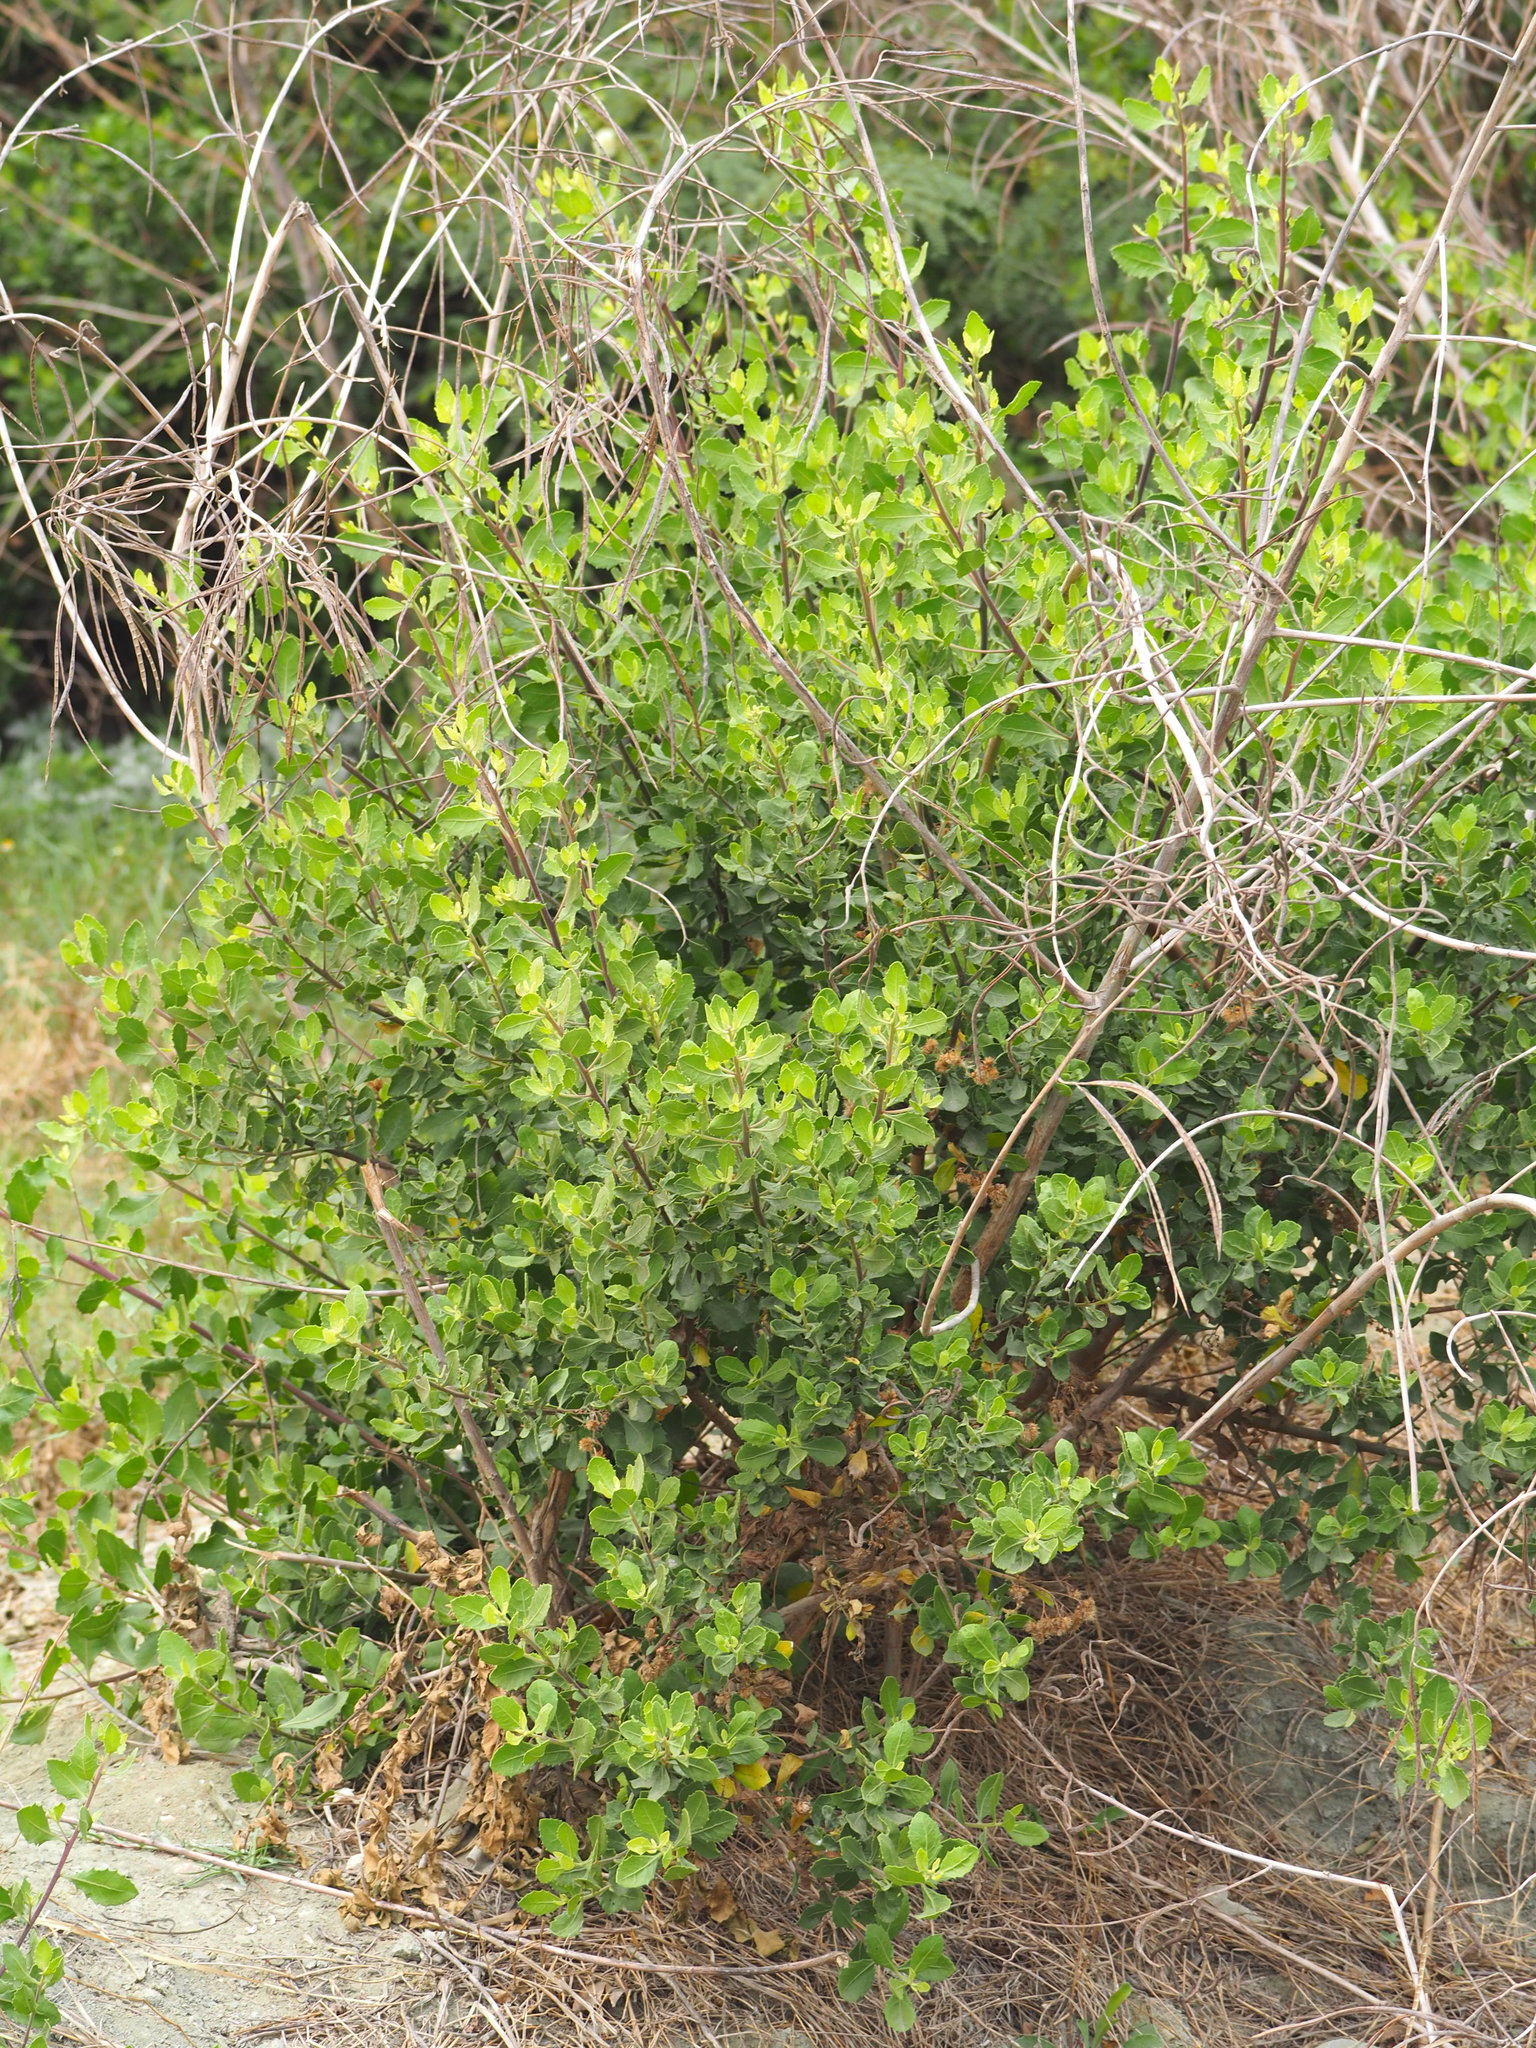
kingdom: Plantae
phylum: Tracheophyta
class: Magnoliopsida
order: Asterales
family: Asteraceae
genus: Pluchea
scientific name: Pluchea indica
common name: Indian fleabane
